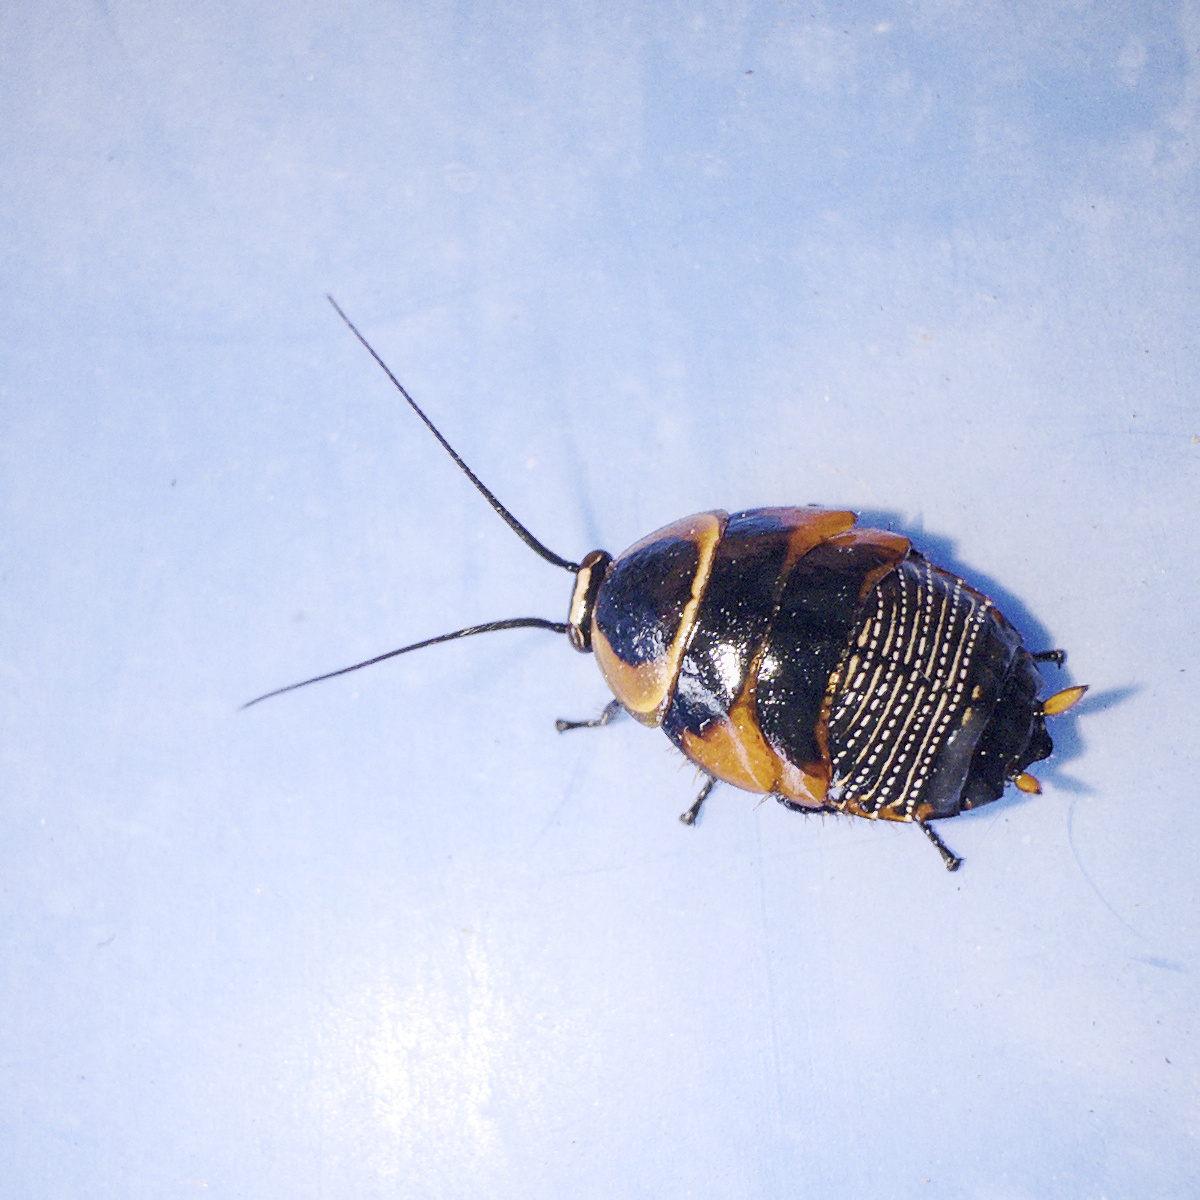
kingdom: Animalia
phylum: Arthropoda
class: Insecta
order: Blattodea
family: Ectobiidae
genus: Ellipsidion
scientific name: Ellipsidion australe
